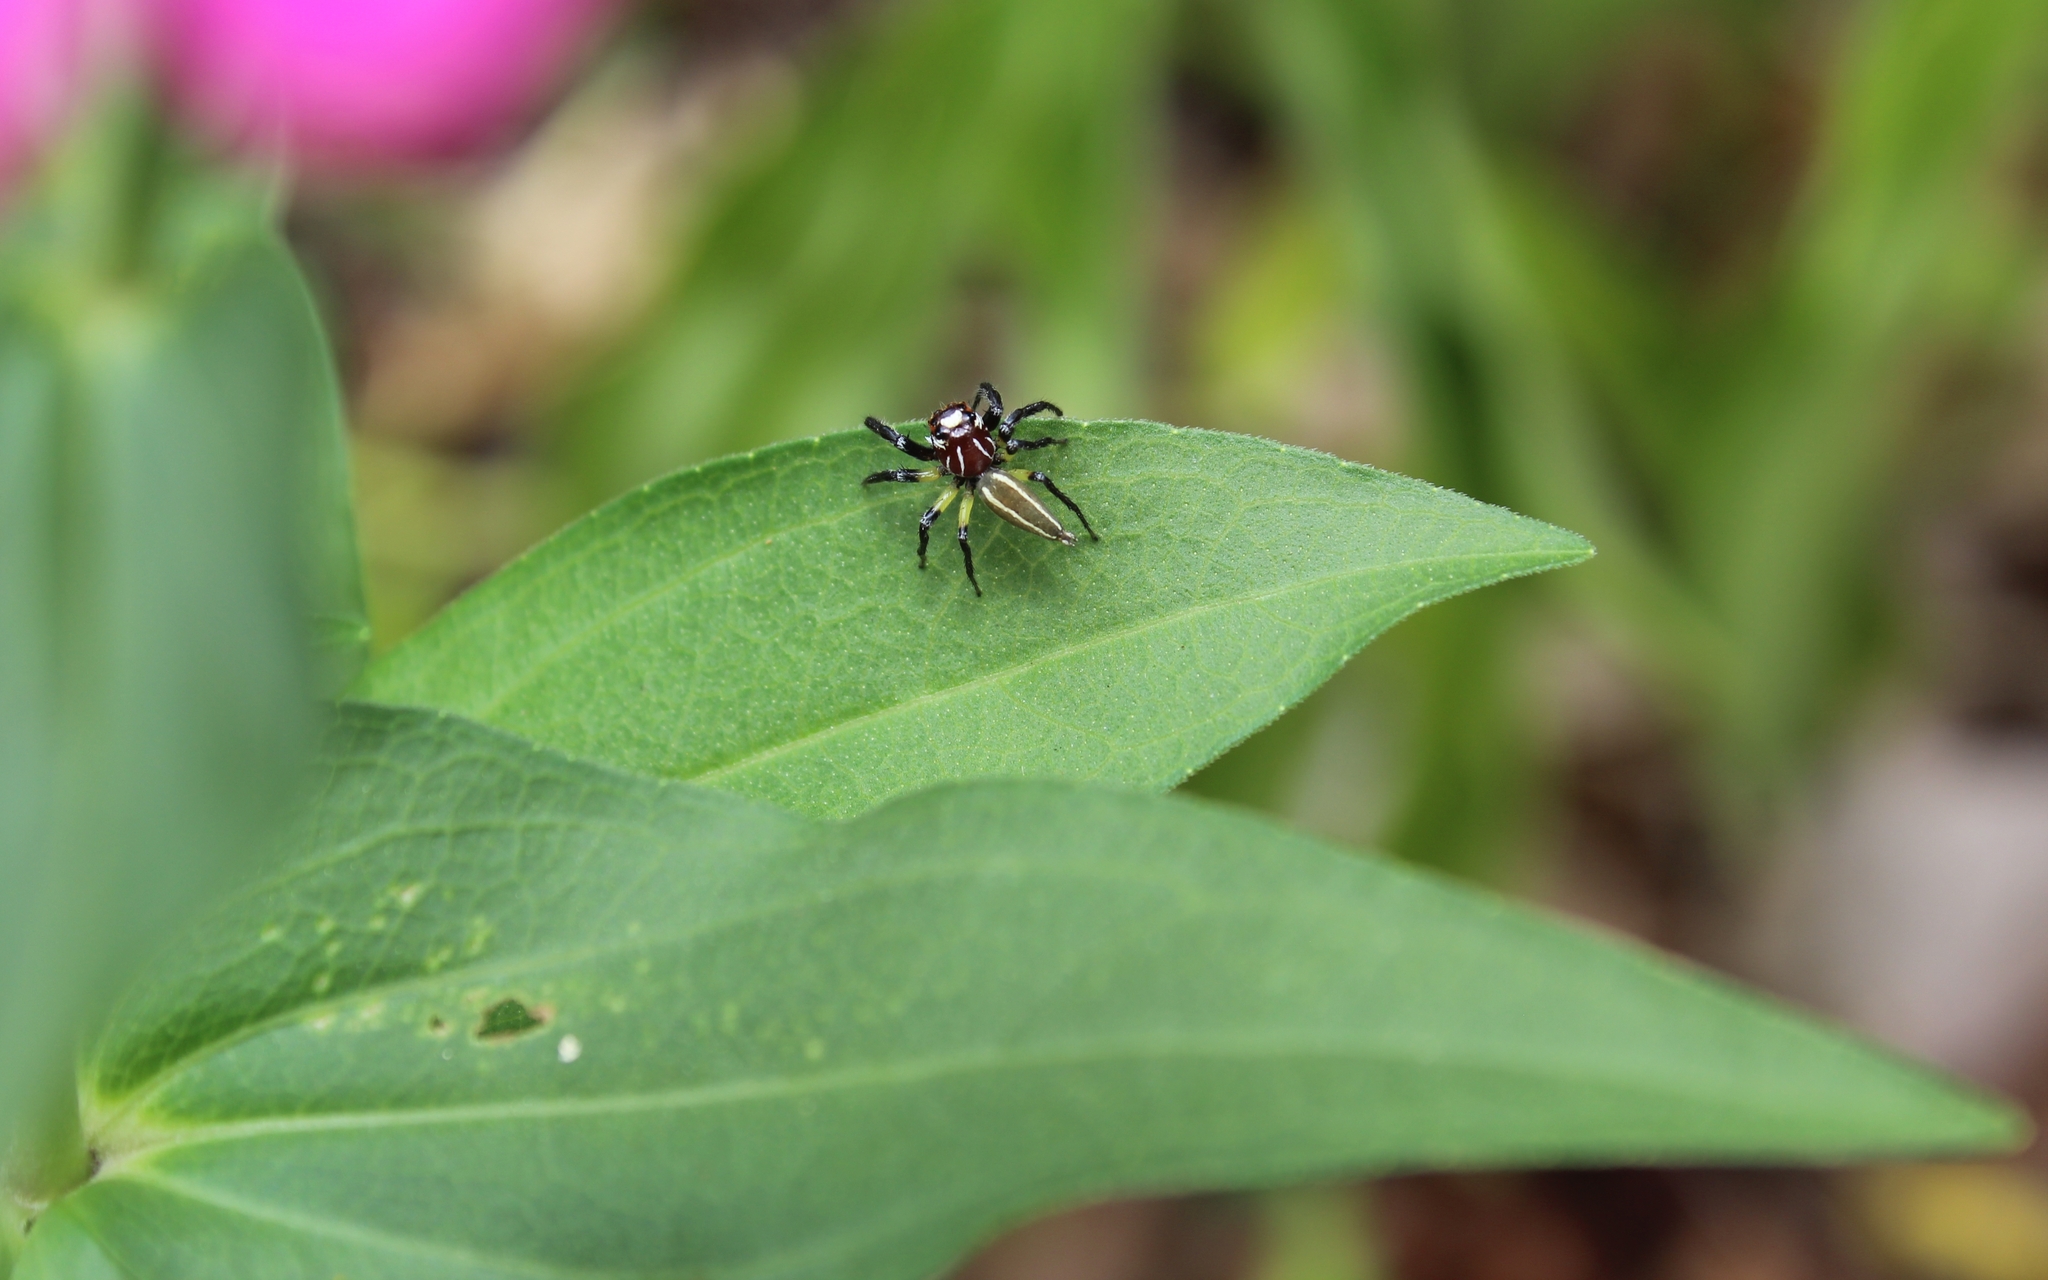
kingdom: Animalia
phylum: Arthropoda
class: Arachnida
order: Araneae
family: Salticidae
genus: Colonus
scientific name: Colonus sylvanus
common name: Jumping spiders
